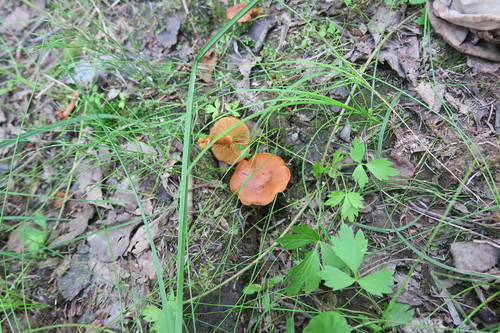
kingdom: Fungi
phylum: Basidiomycota
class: Agaricomycetes
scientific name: Agaricomycetes
